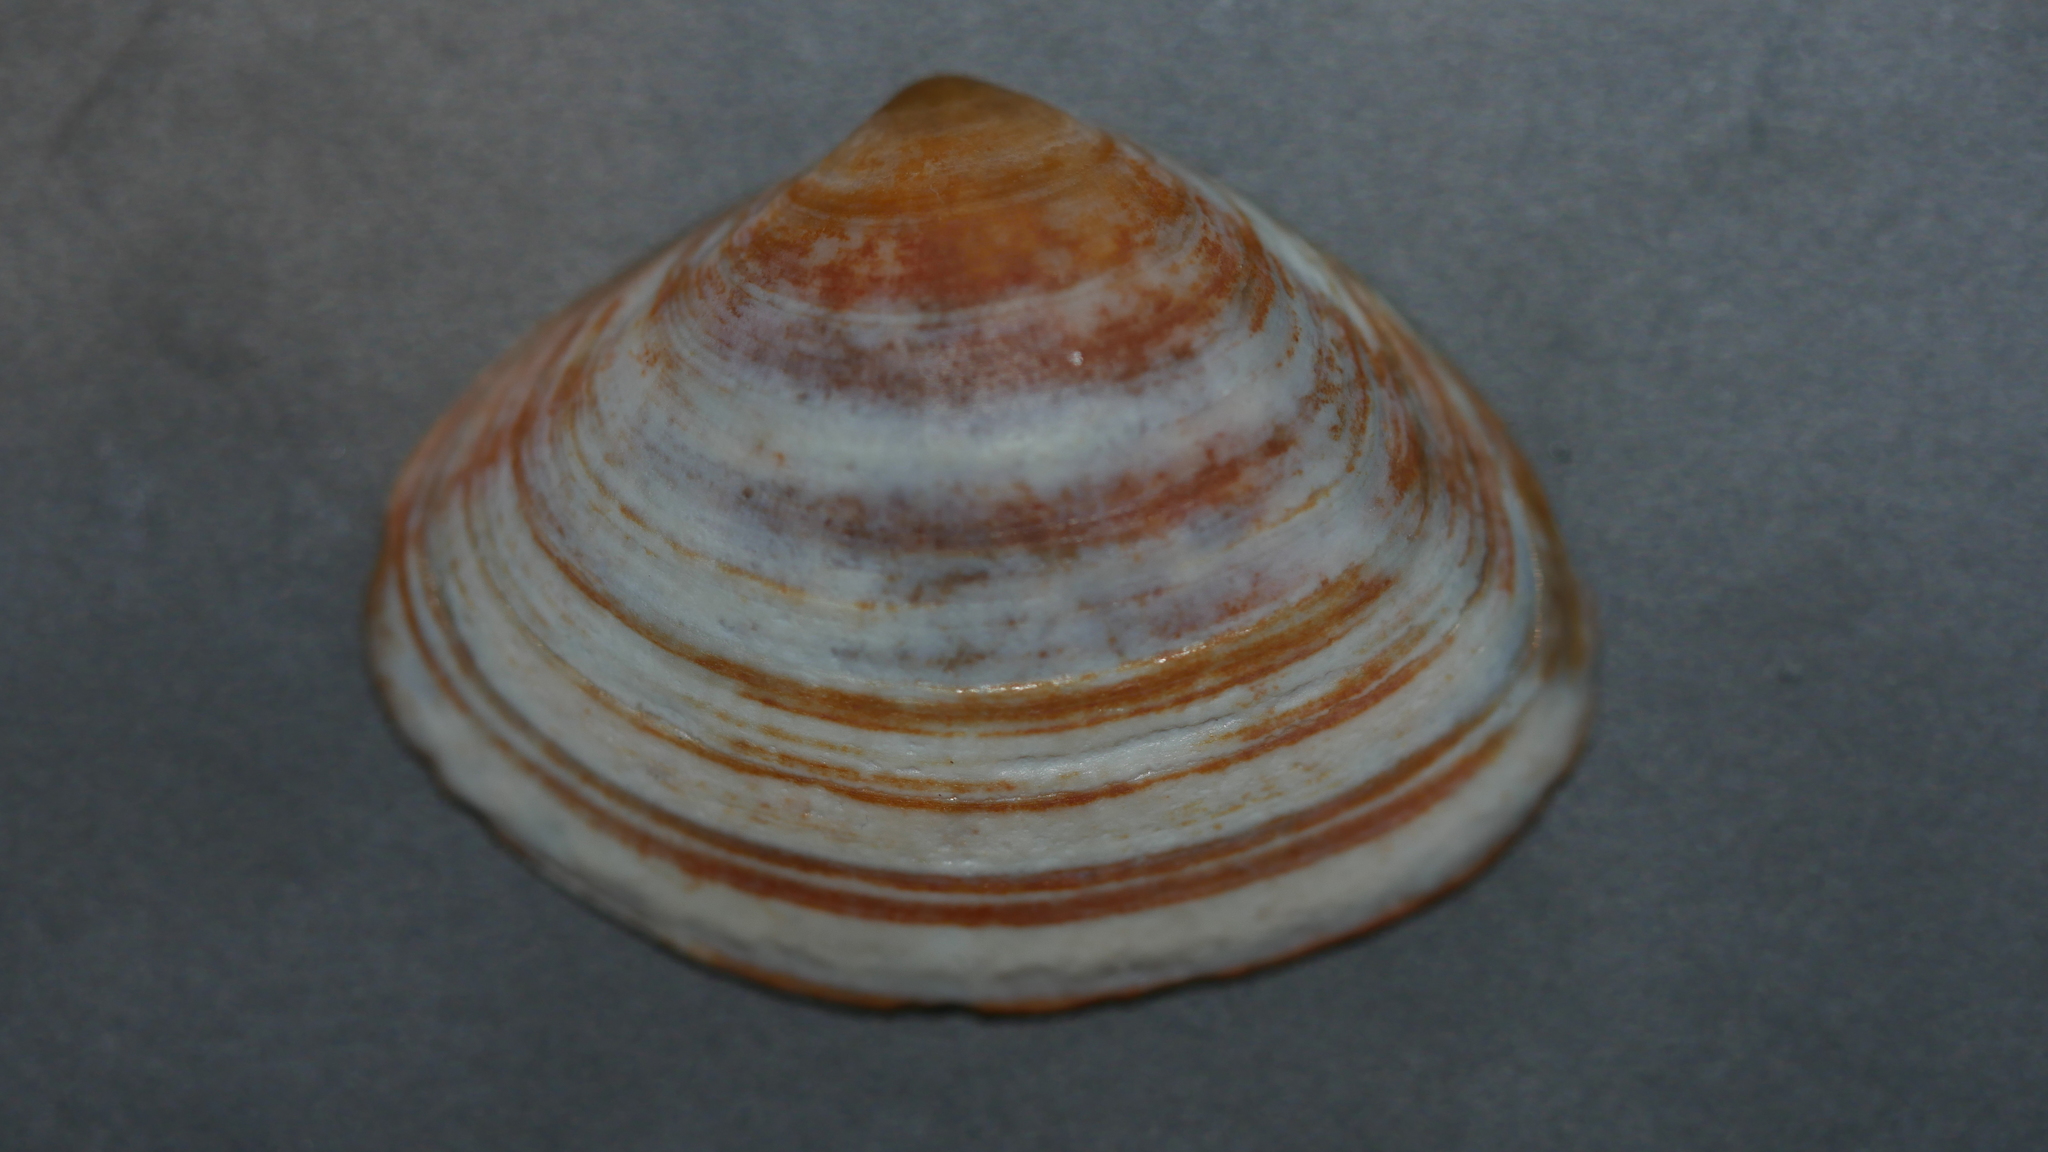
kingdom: Animalia
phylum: Mollusca
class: Bivalvia
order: Venerida
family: Mactridae
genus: Spisula
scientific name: Spisula solidissima
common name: Atlantic surf clam
